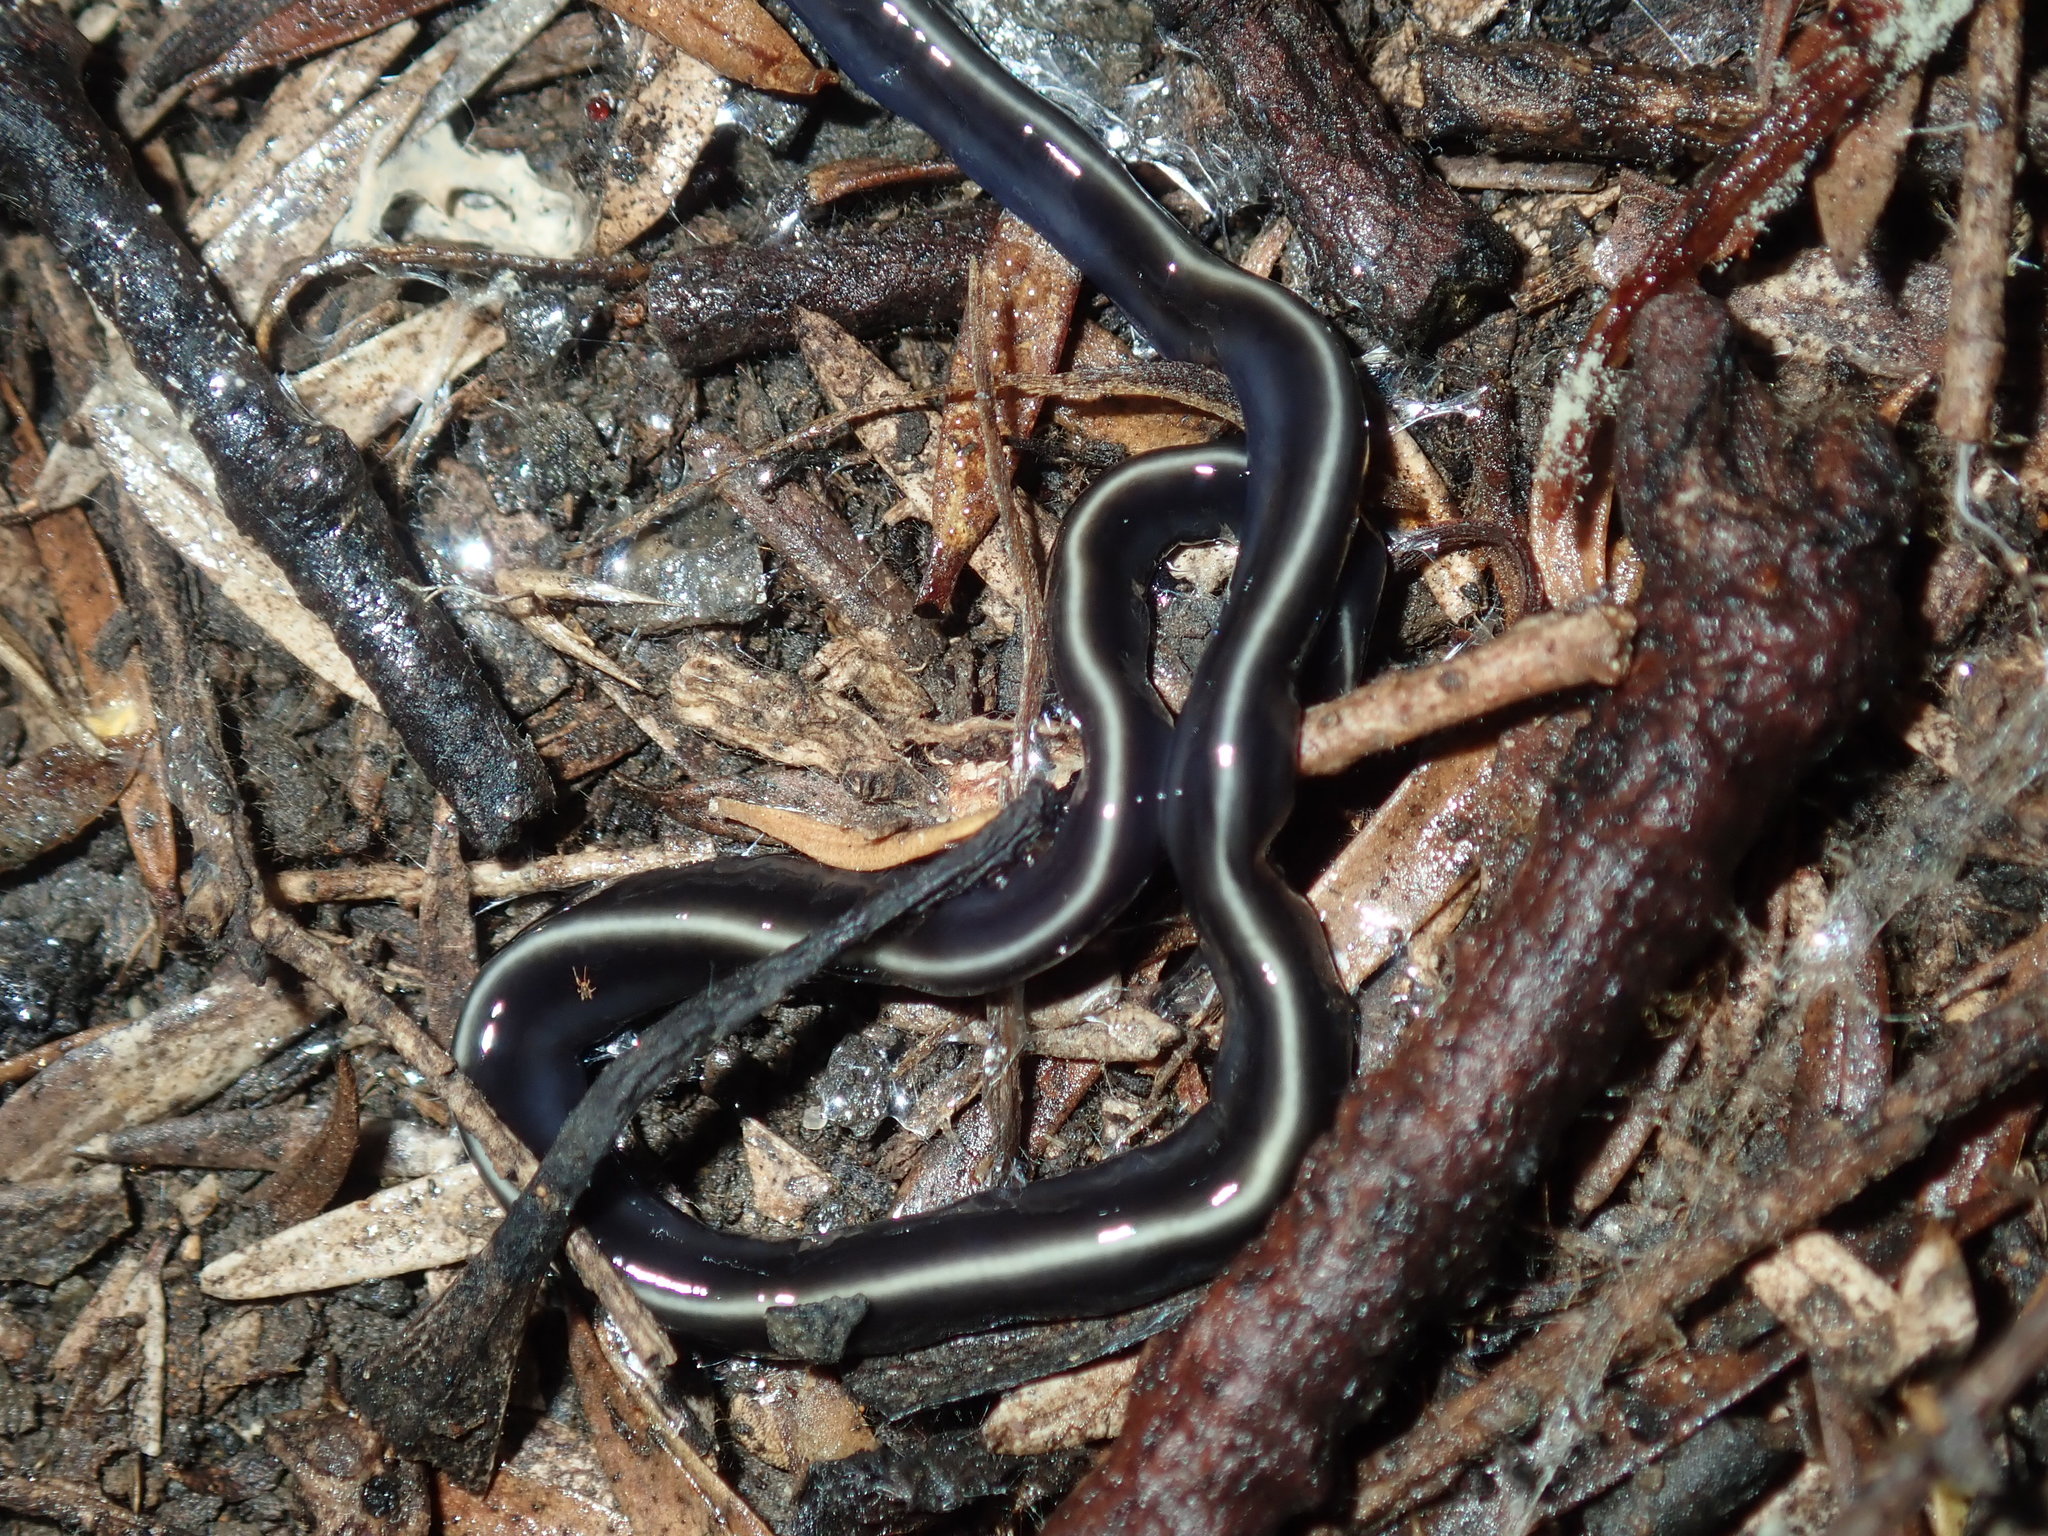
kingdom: Animalia
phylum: Platyhelminthes
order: Tricladida
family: Geoplanidae
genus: Caenoplana
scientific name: Caenoplana coerulea
